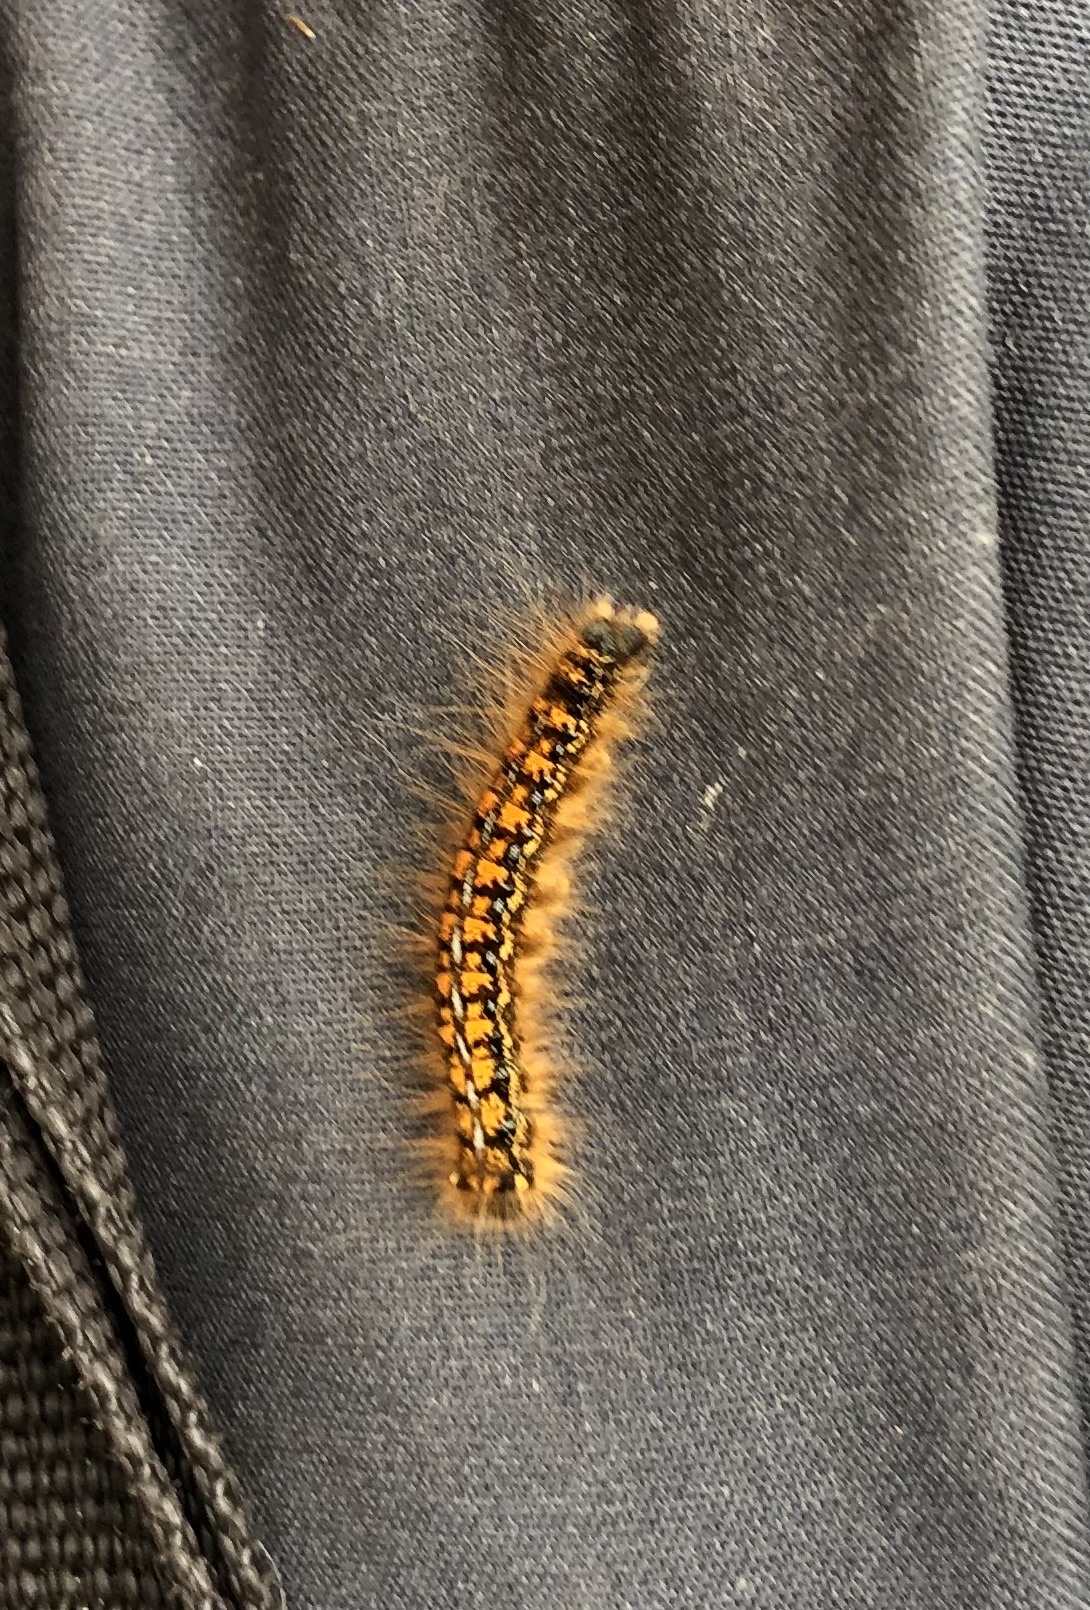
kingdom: Animalia
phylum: Arthropoda
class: Insecta
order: Lepidoptera
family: Lasiocampidae
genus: Malacosoma
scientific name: Malacosoma californica
